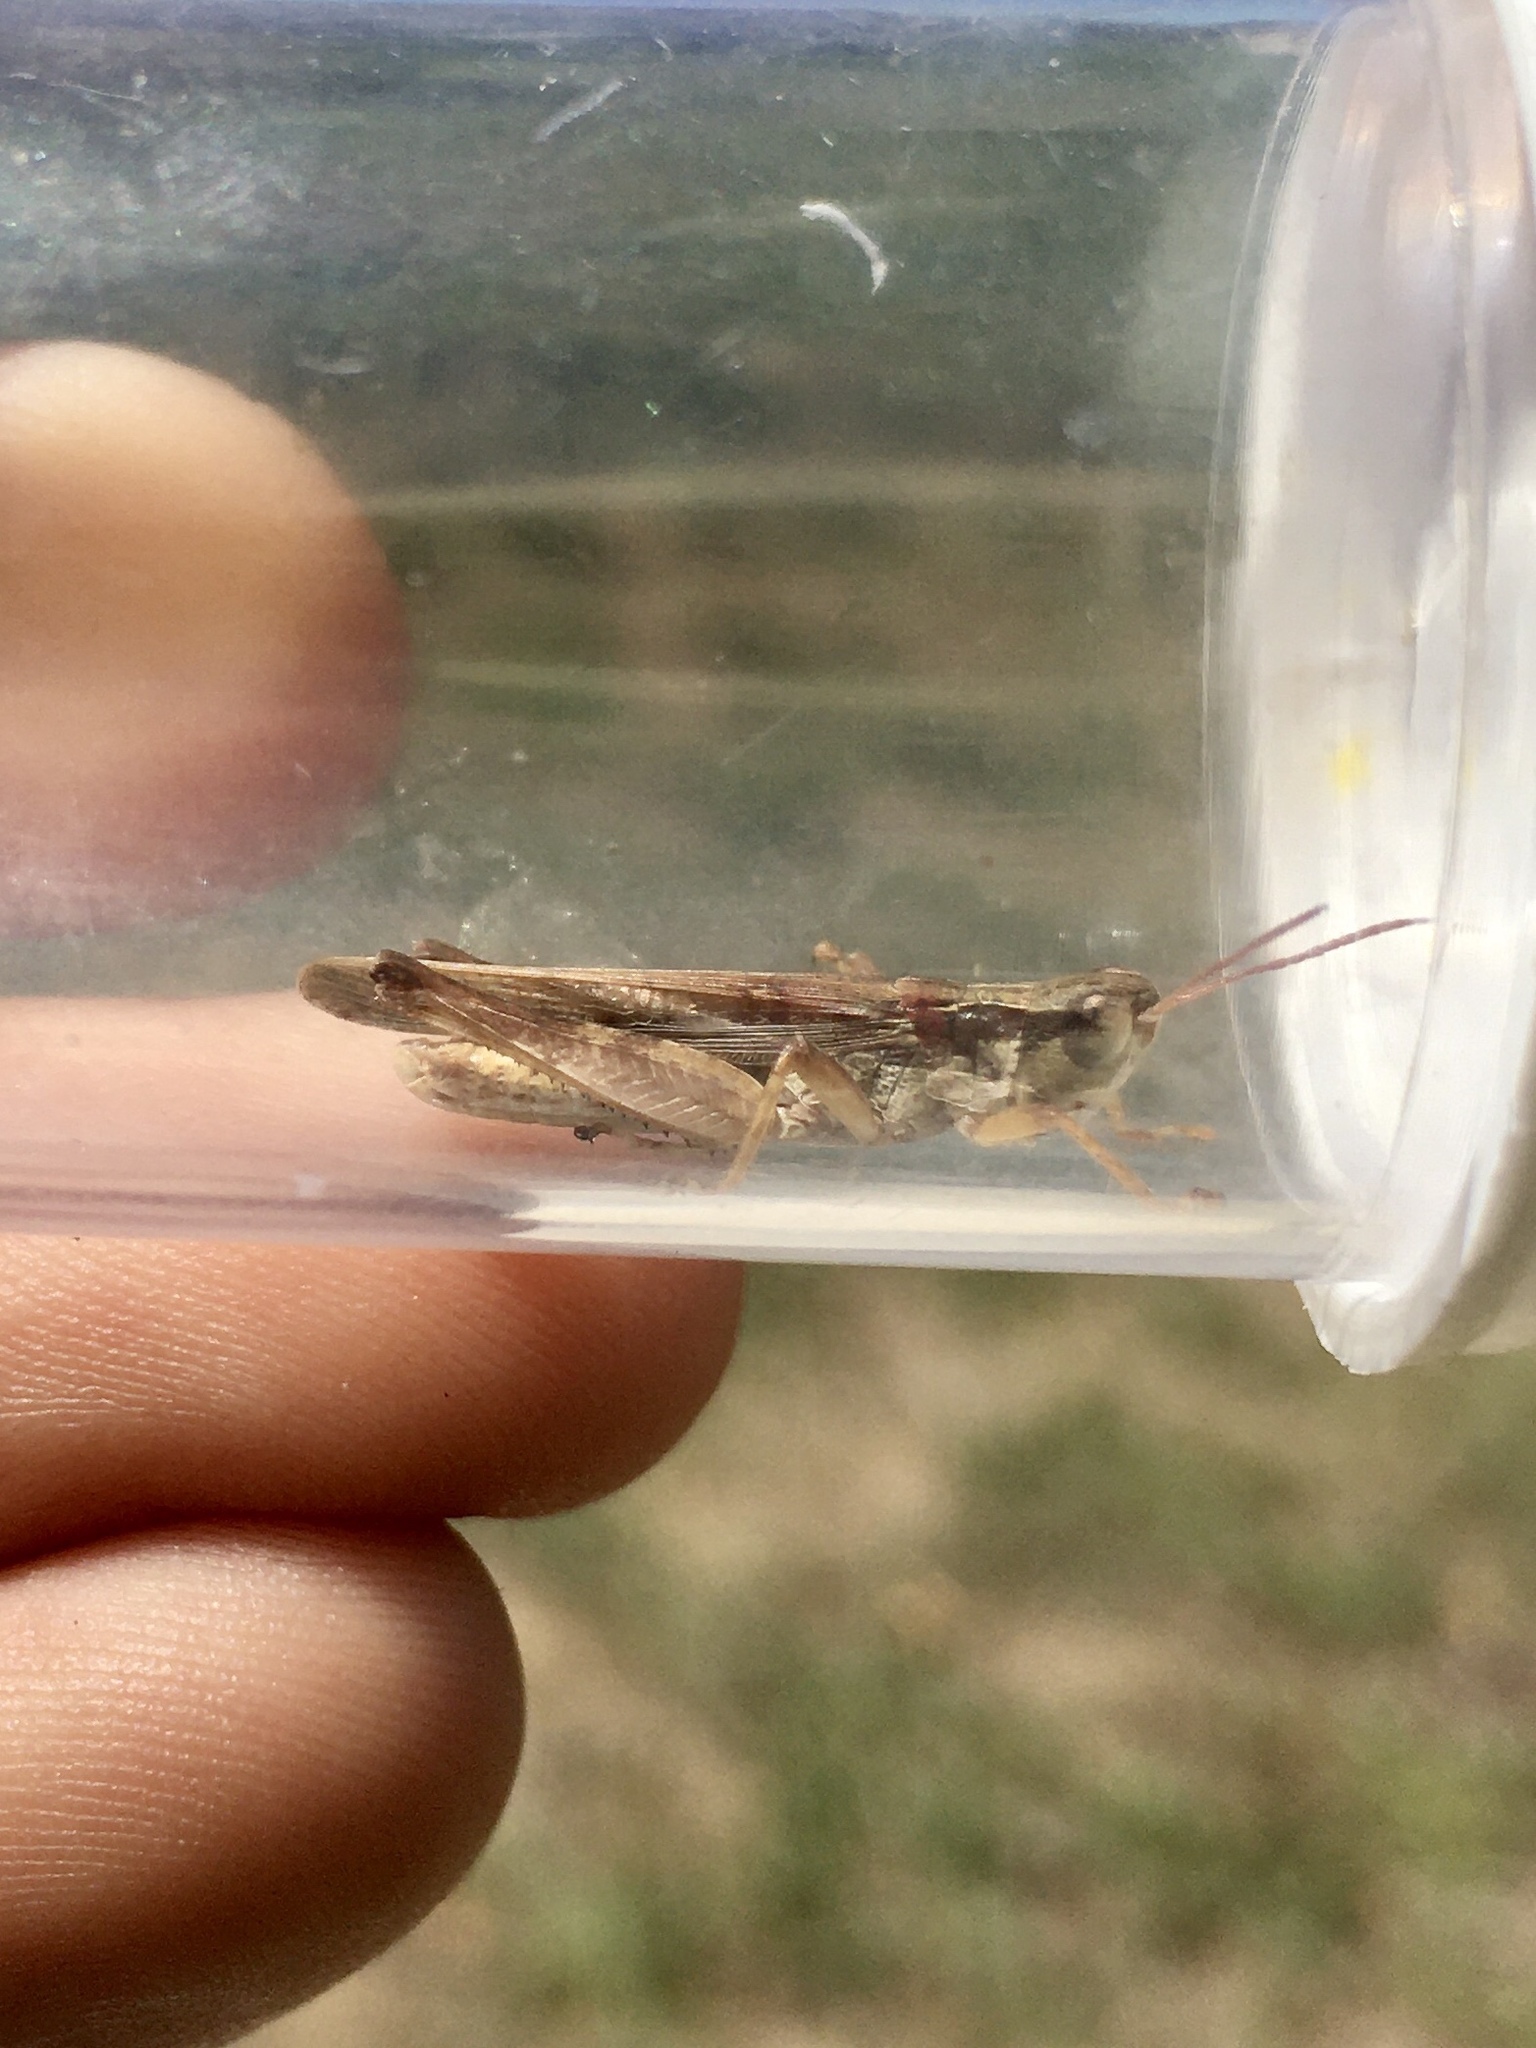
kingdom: Animalia
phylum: Arthropoda
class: Insecta
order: Orthoptera
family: Acrididae
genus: Orphulella
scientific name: Orphulella pelidna
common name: Spotted-wing grasshopper
